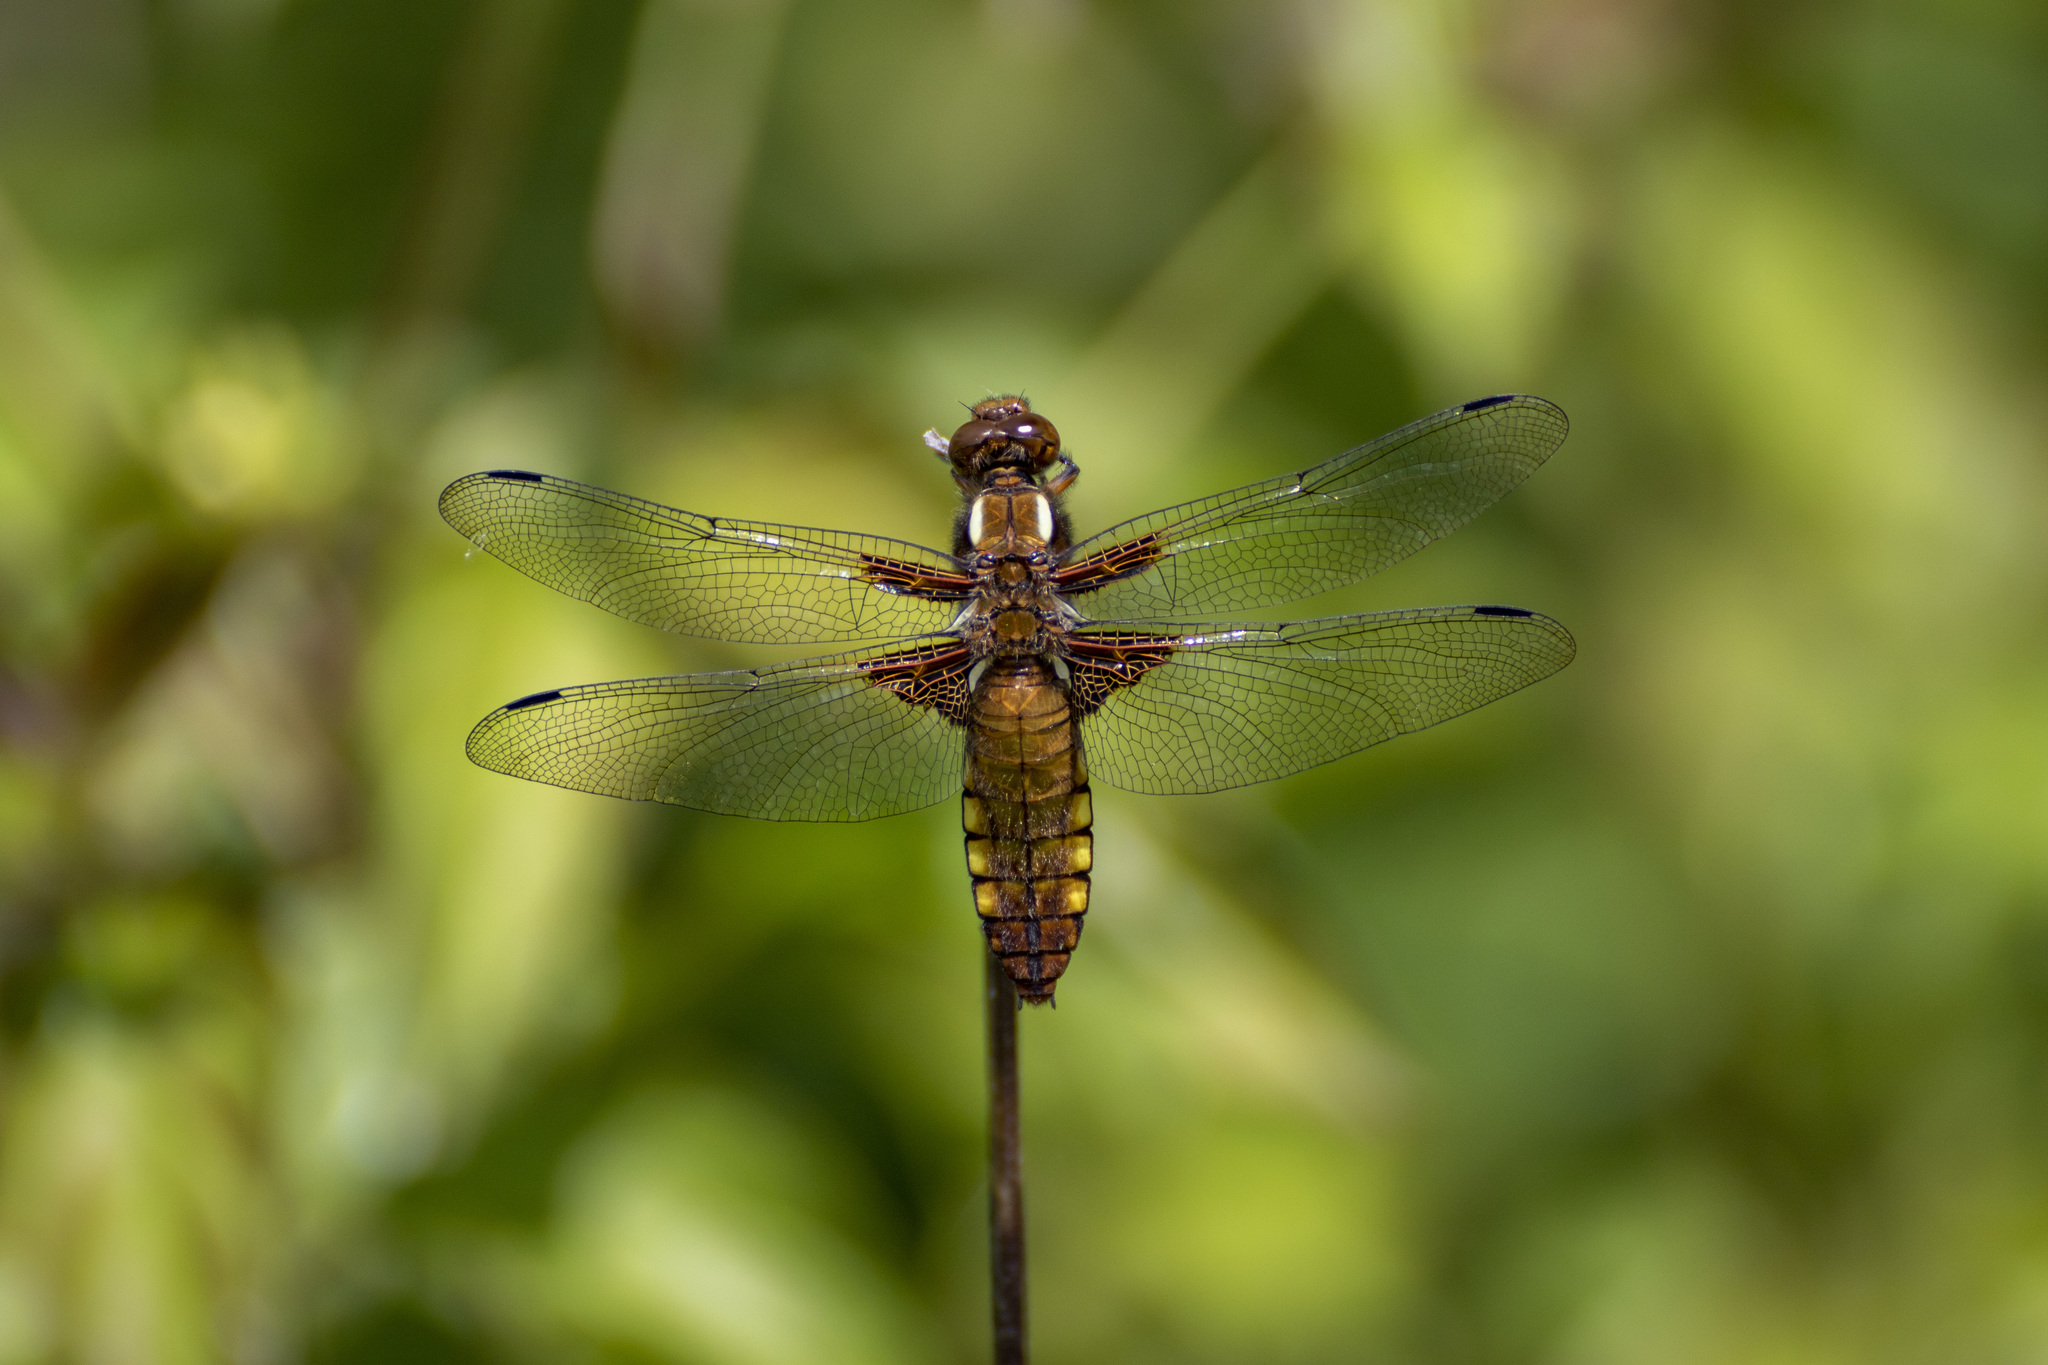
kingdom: Animalia
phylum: Arthropoda
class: Insecta
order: Odonata
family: Libellulidae
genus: Libellula
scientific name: Libellula depressa
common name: Broad-bodied chaser
